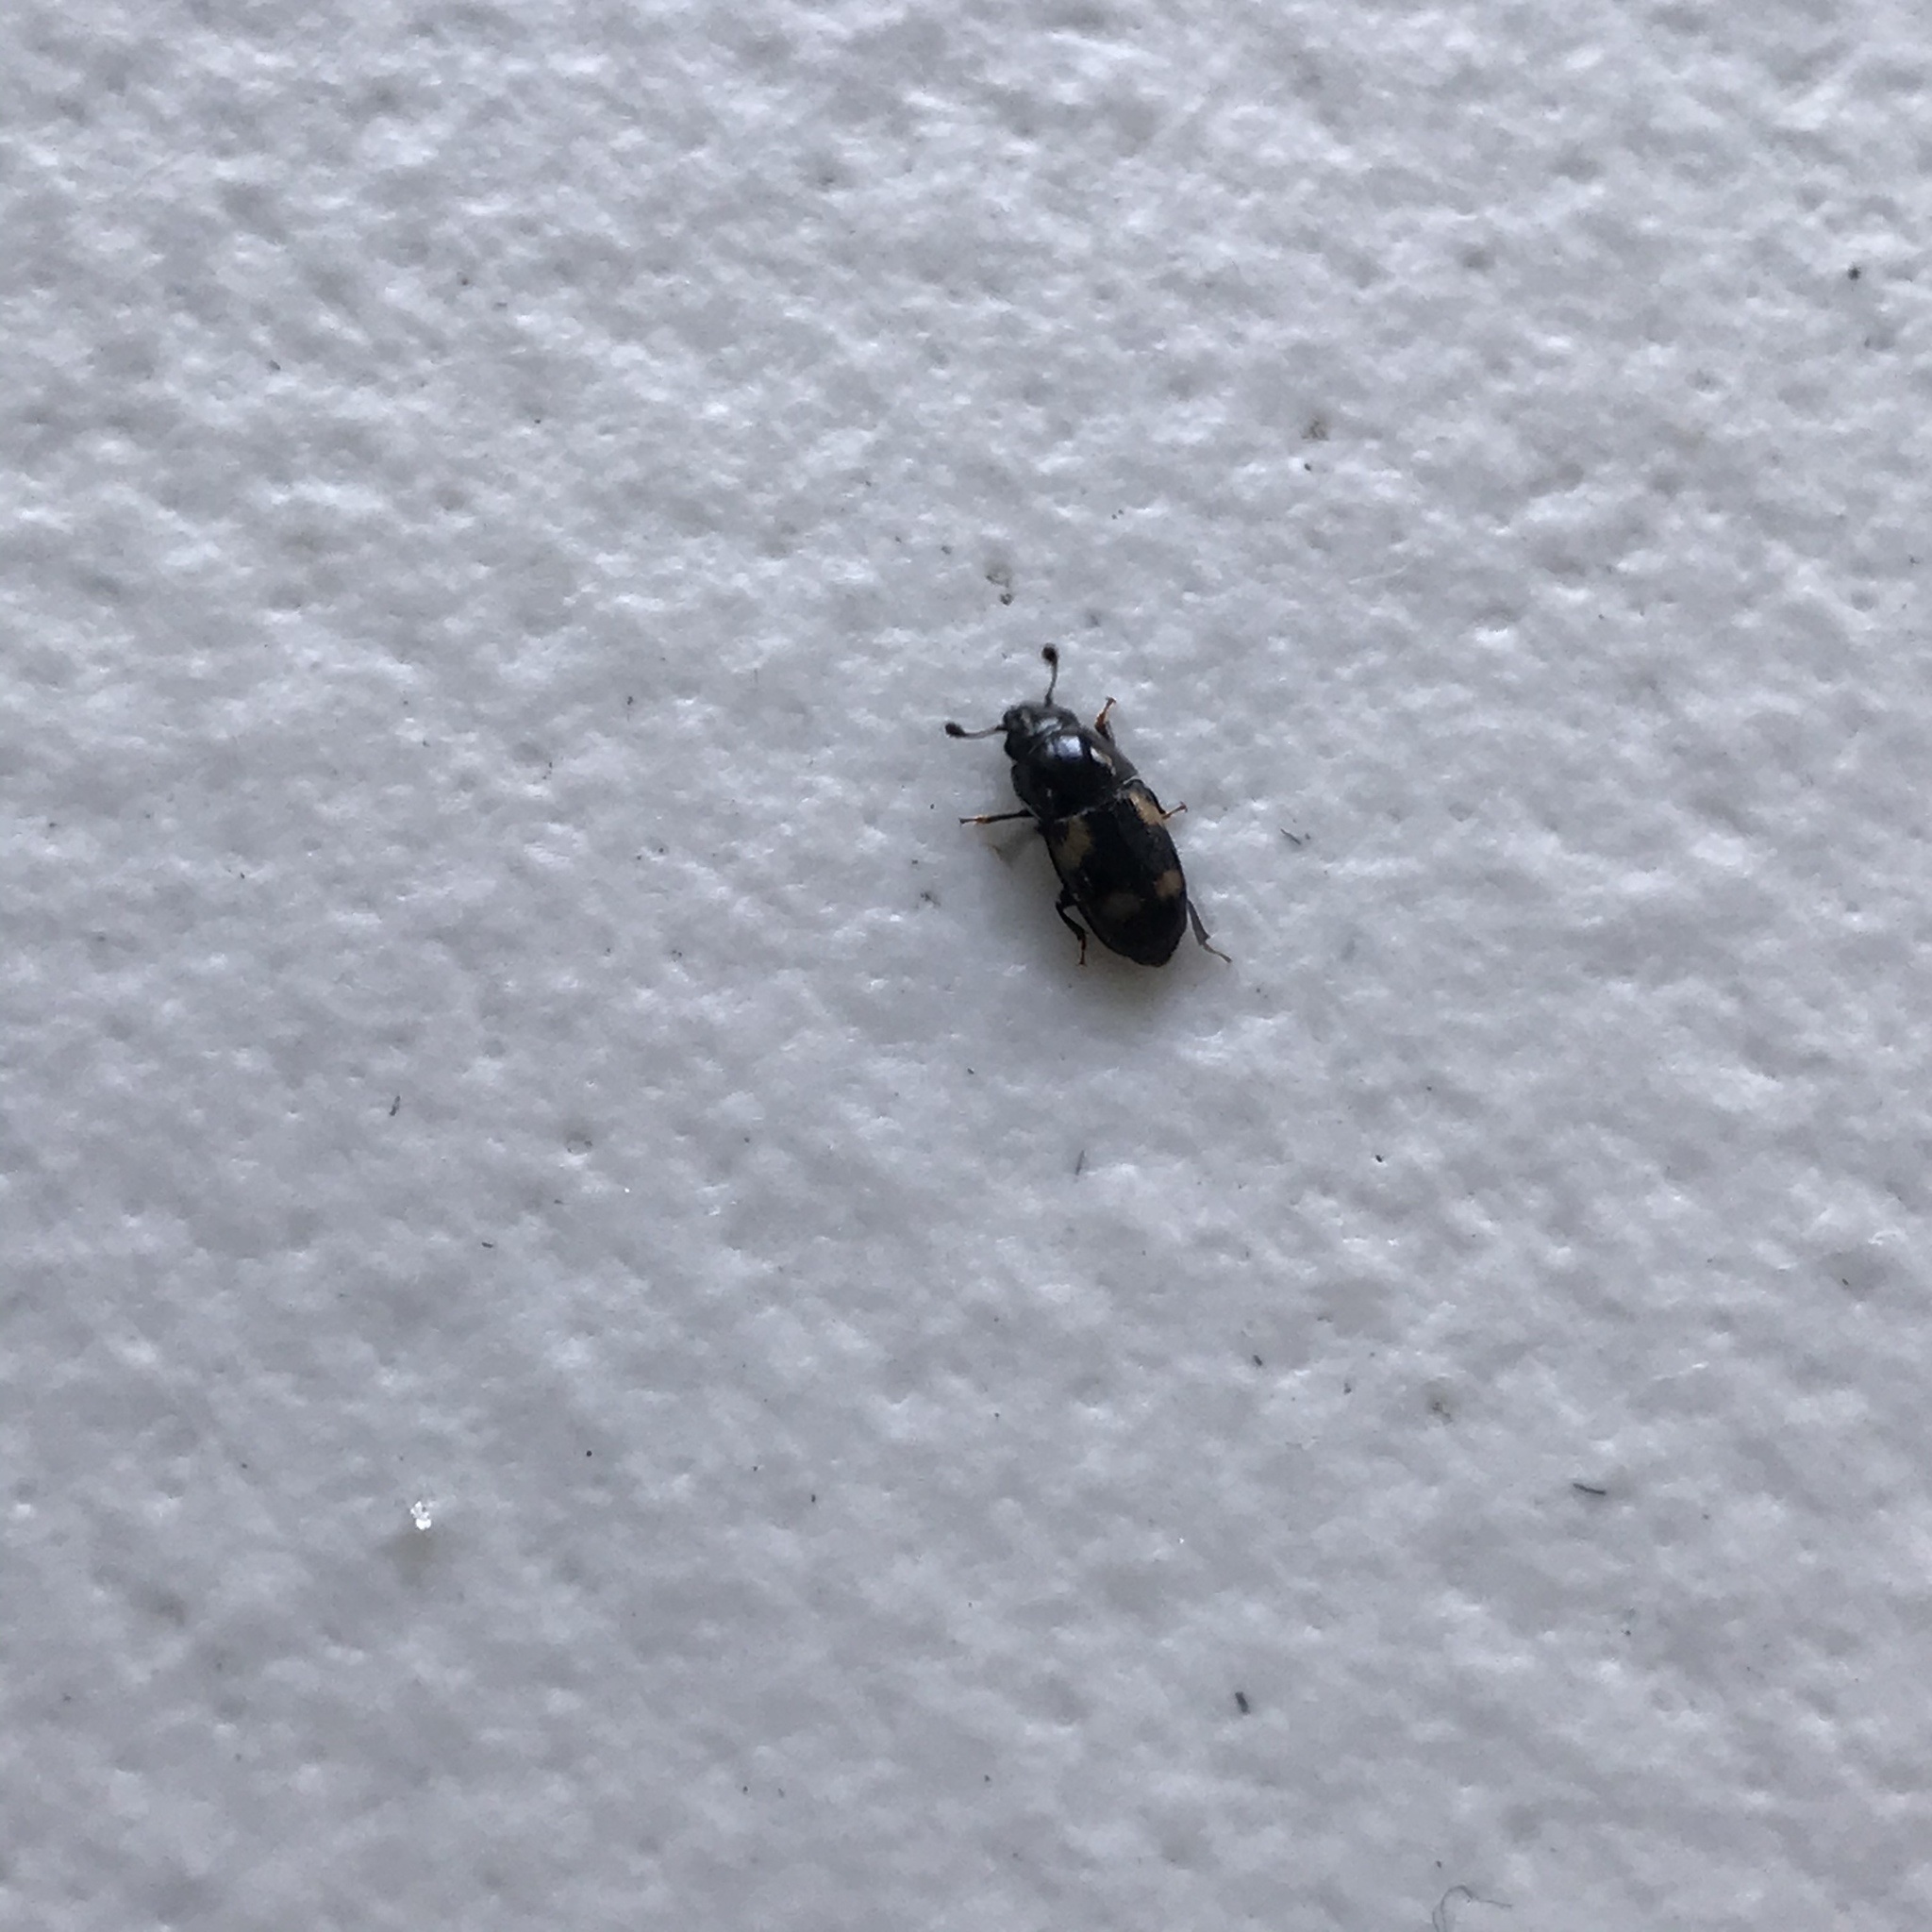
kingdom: Animalia
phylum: Arthropoda
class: Insecta
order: Coleoptera
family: Nitidulidae
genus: Glischrochilus
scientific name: Glischrochilus quadrisignatus
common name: Picnic beetle
